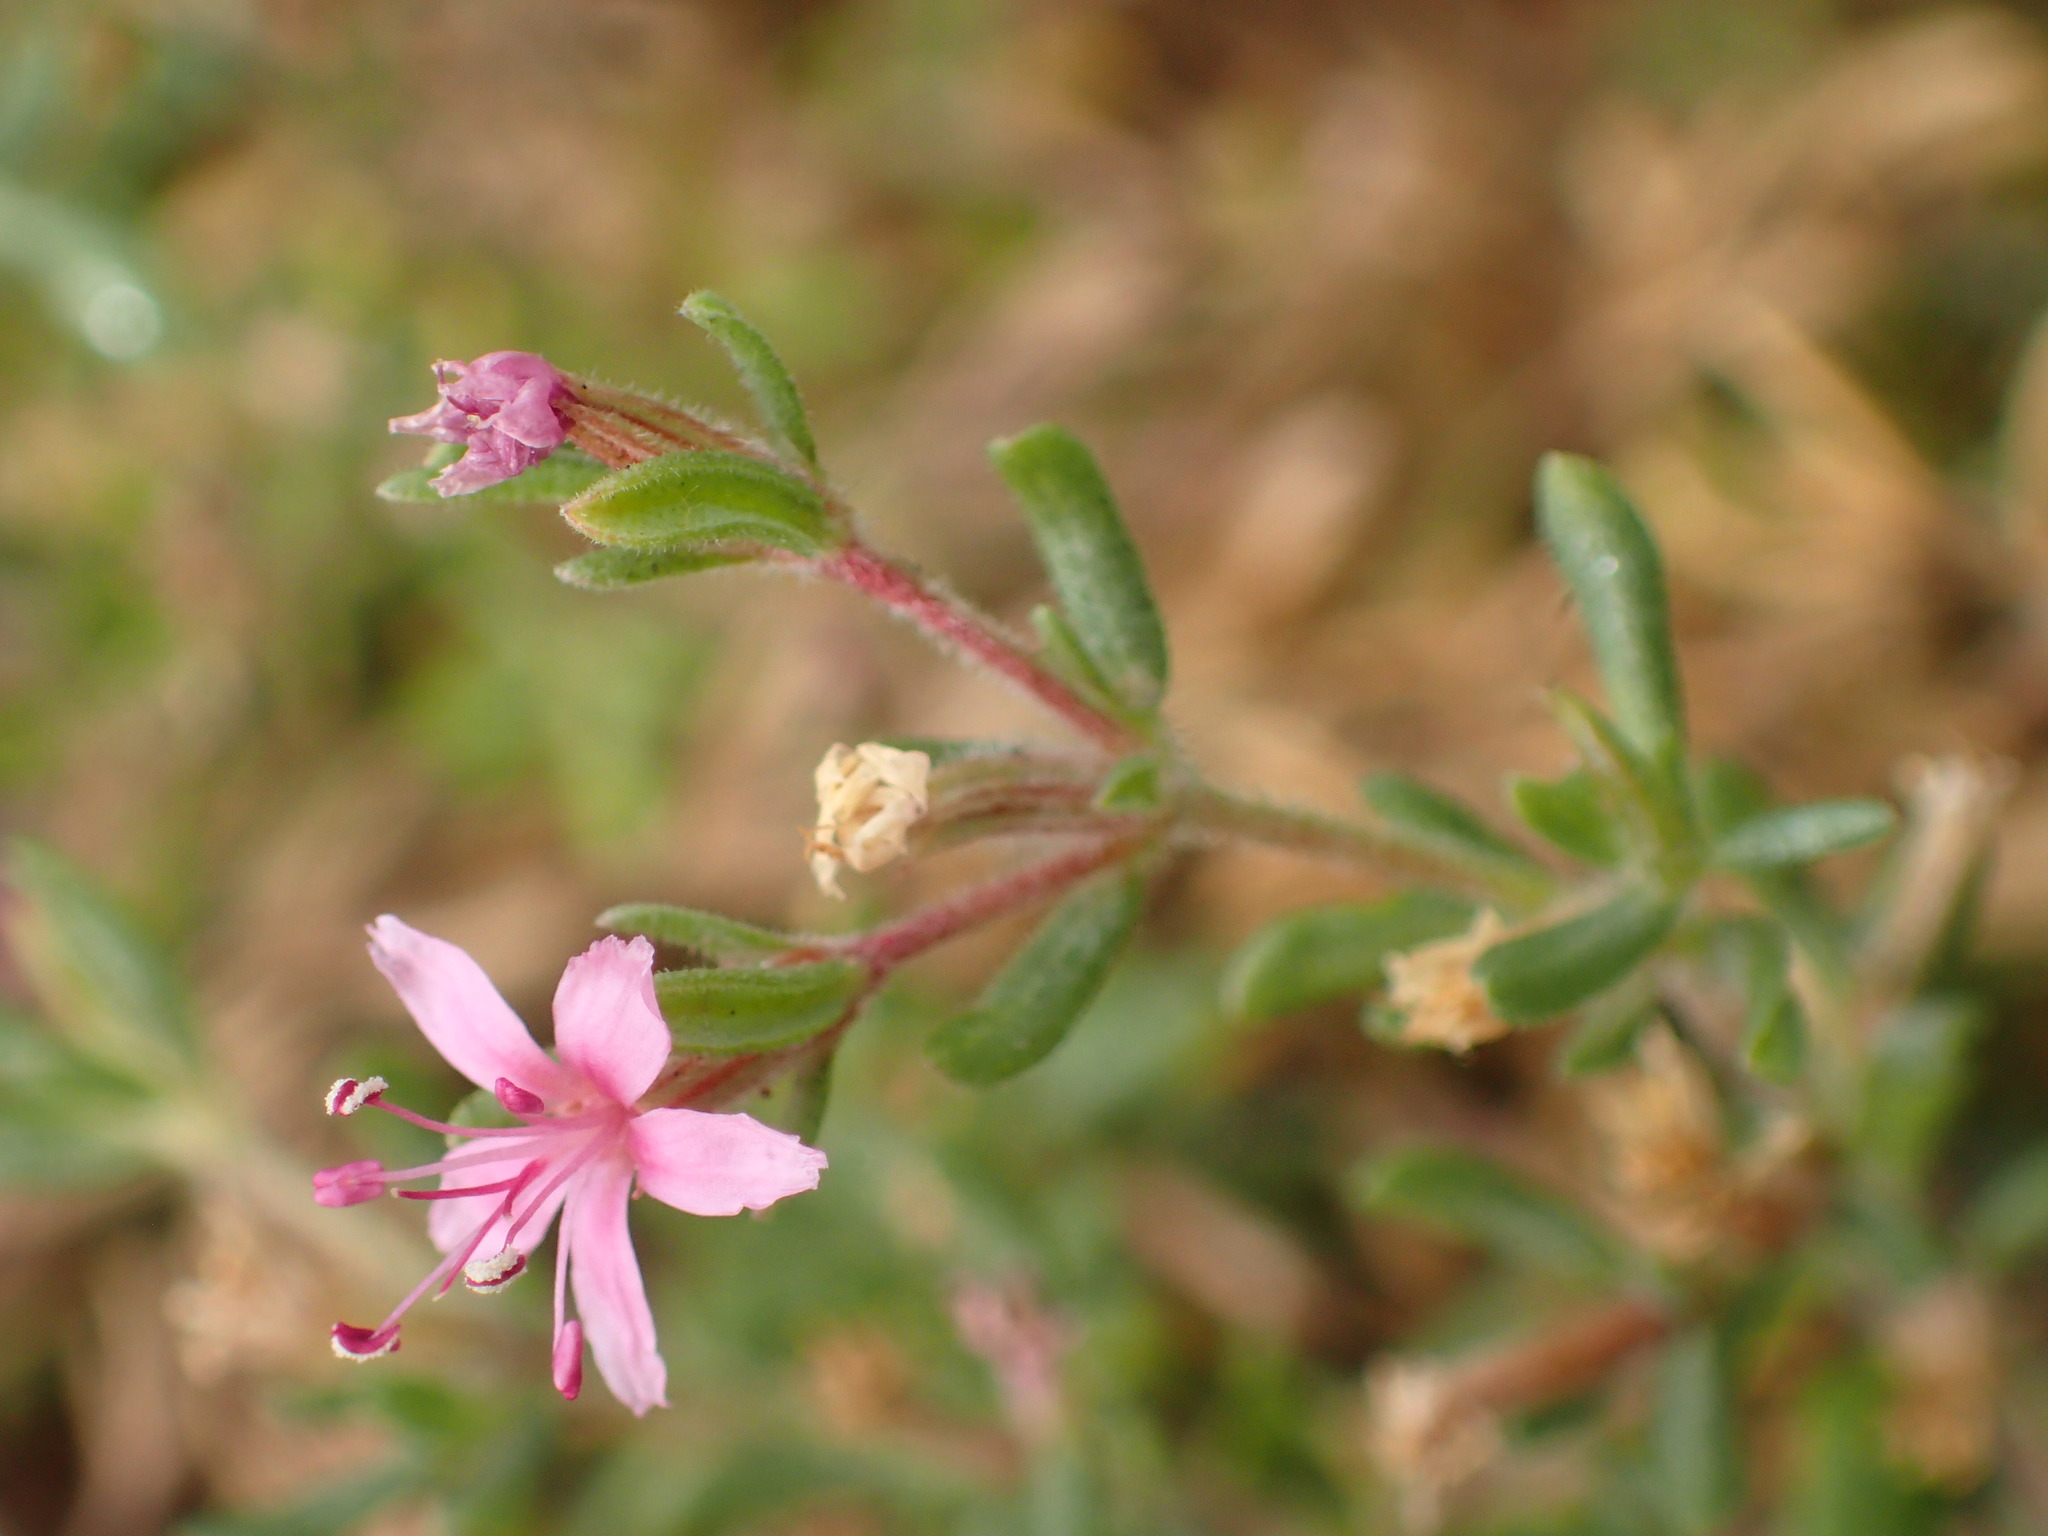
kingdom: Plantae
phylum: Tracheophyta
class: Magnoliopsida
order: Caryophyllales
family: Frankeniaceae
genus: Frankenia
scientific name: Frankenia salina
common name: Alkali seaheath
